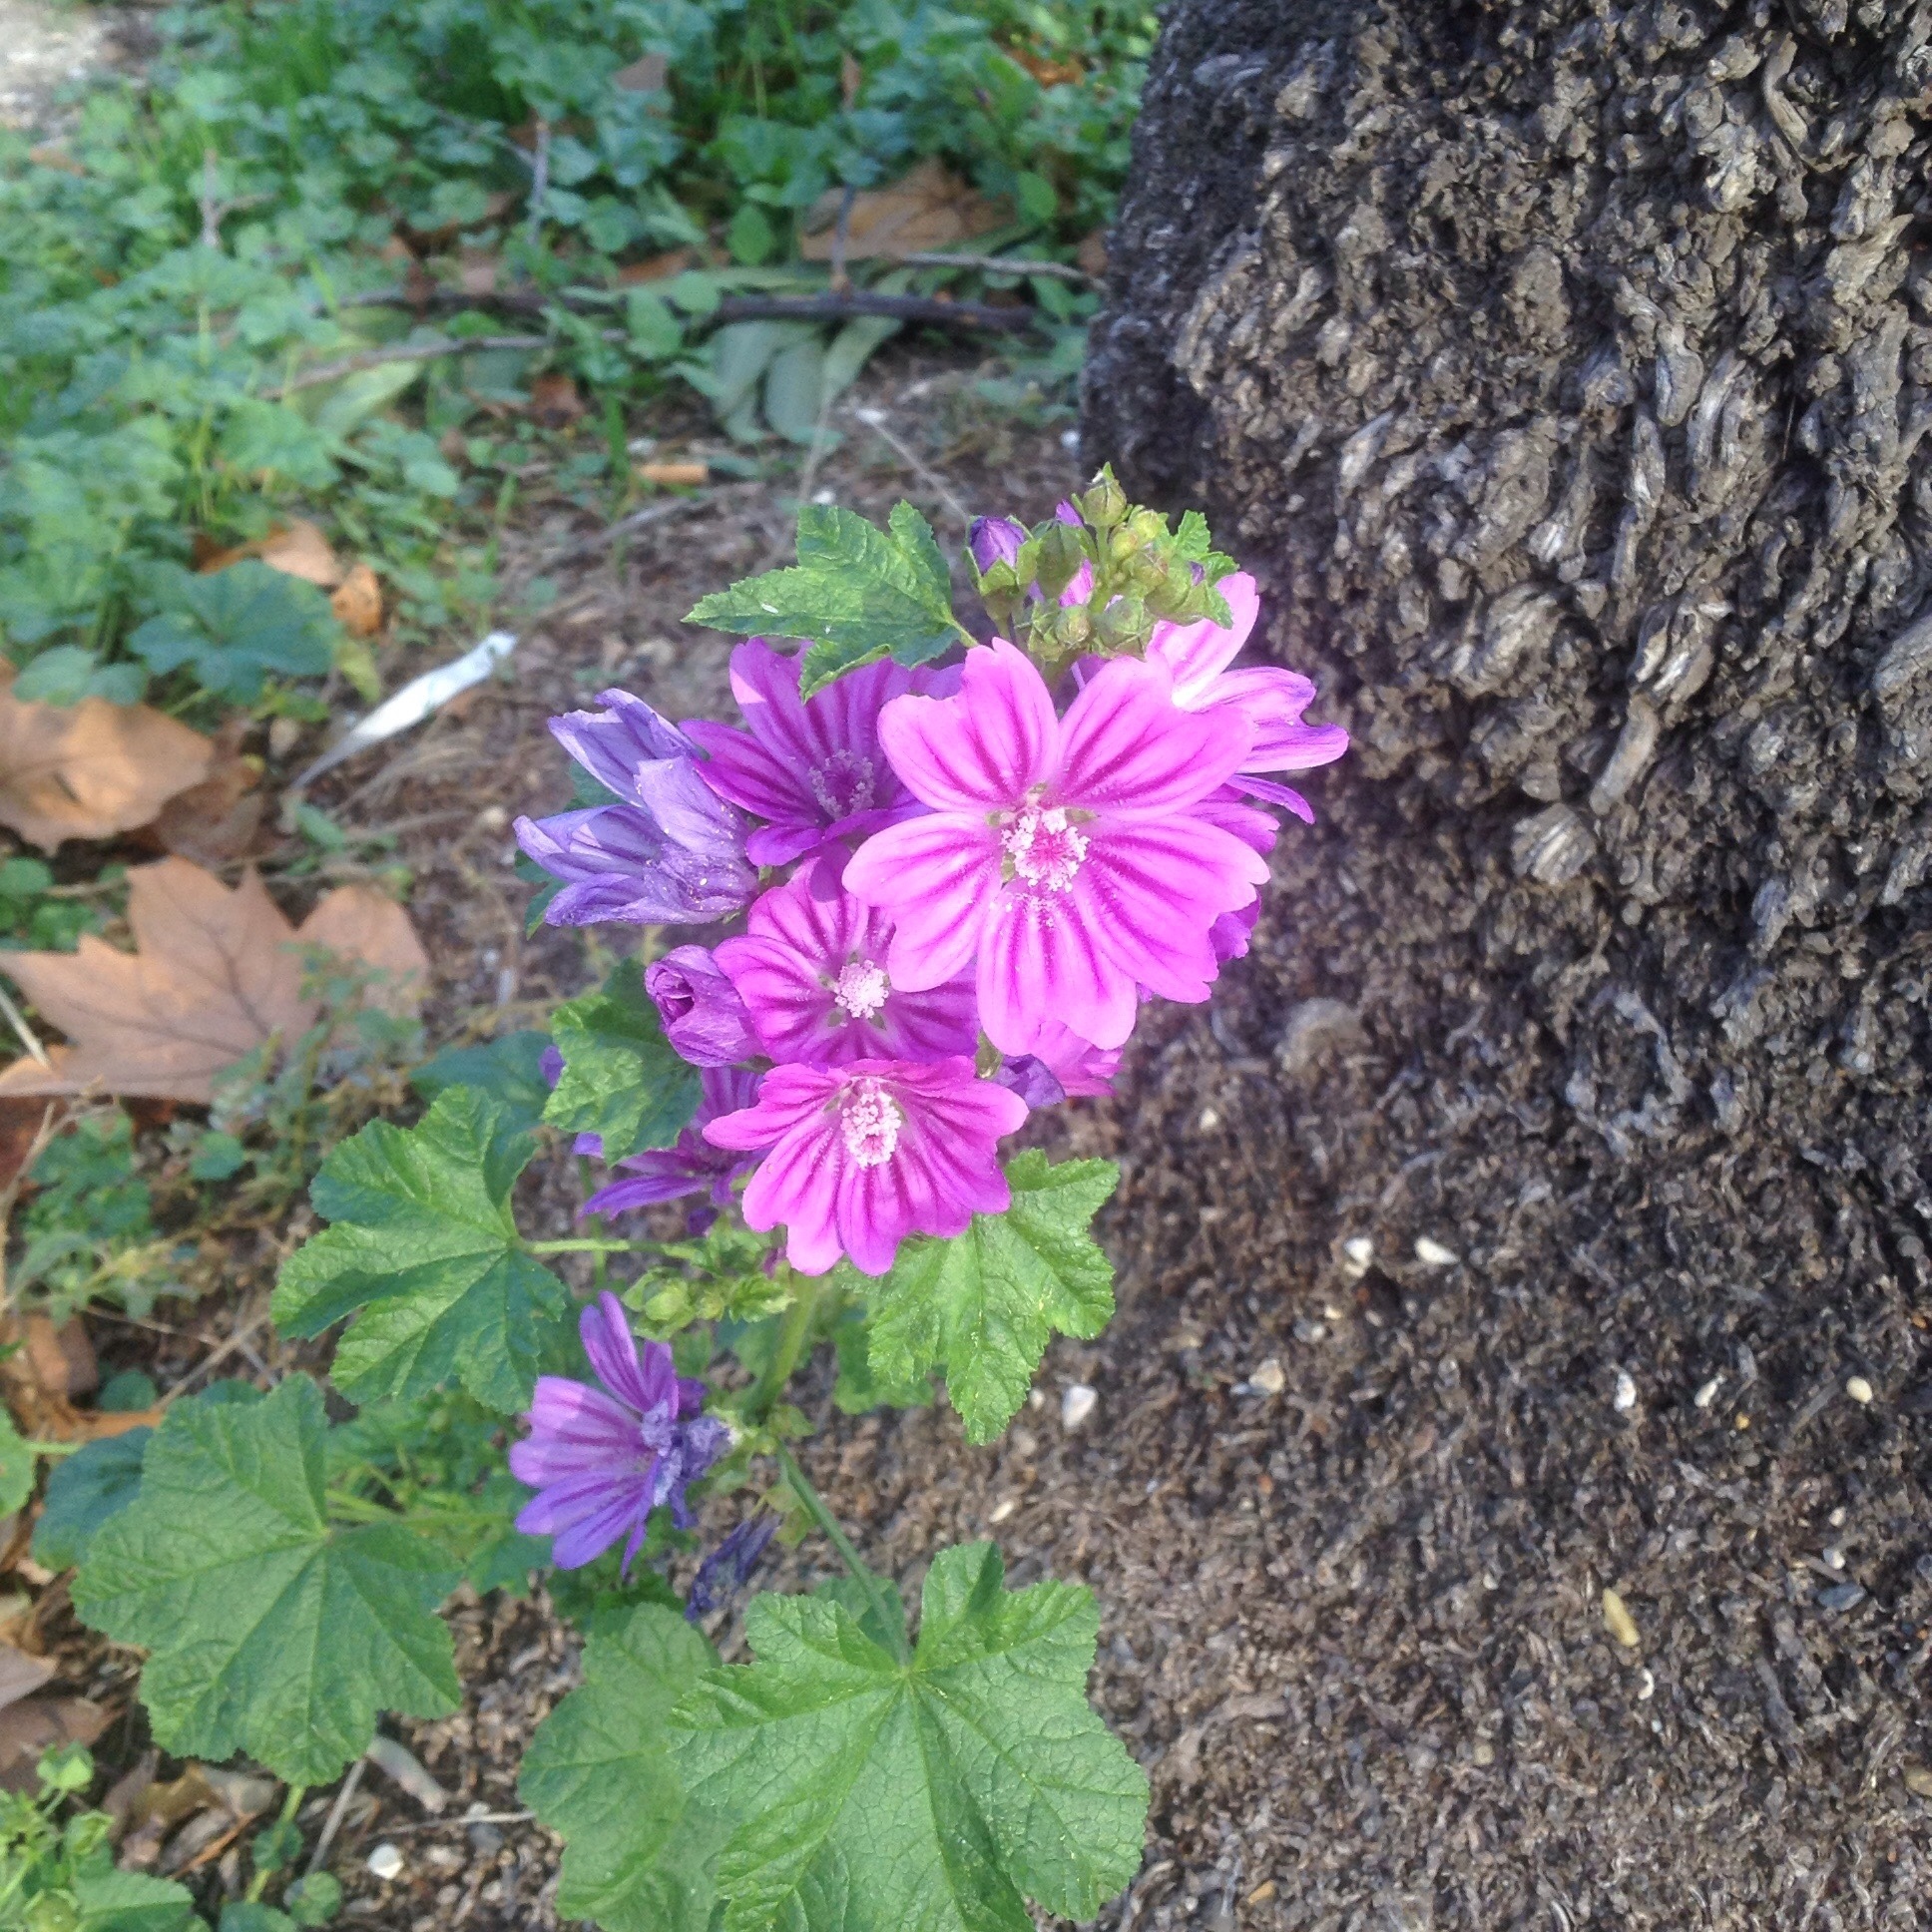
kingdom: Plantae
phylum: Tracheophyta
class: Magnoliopsida
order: Malvales
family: Malvaceae
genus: Malva
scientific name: Malva sylvestris
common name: Common mallow
